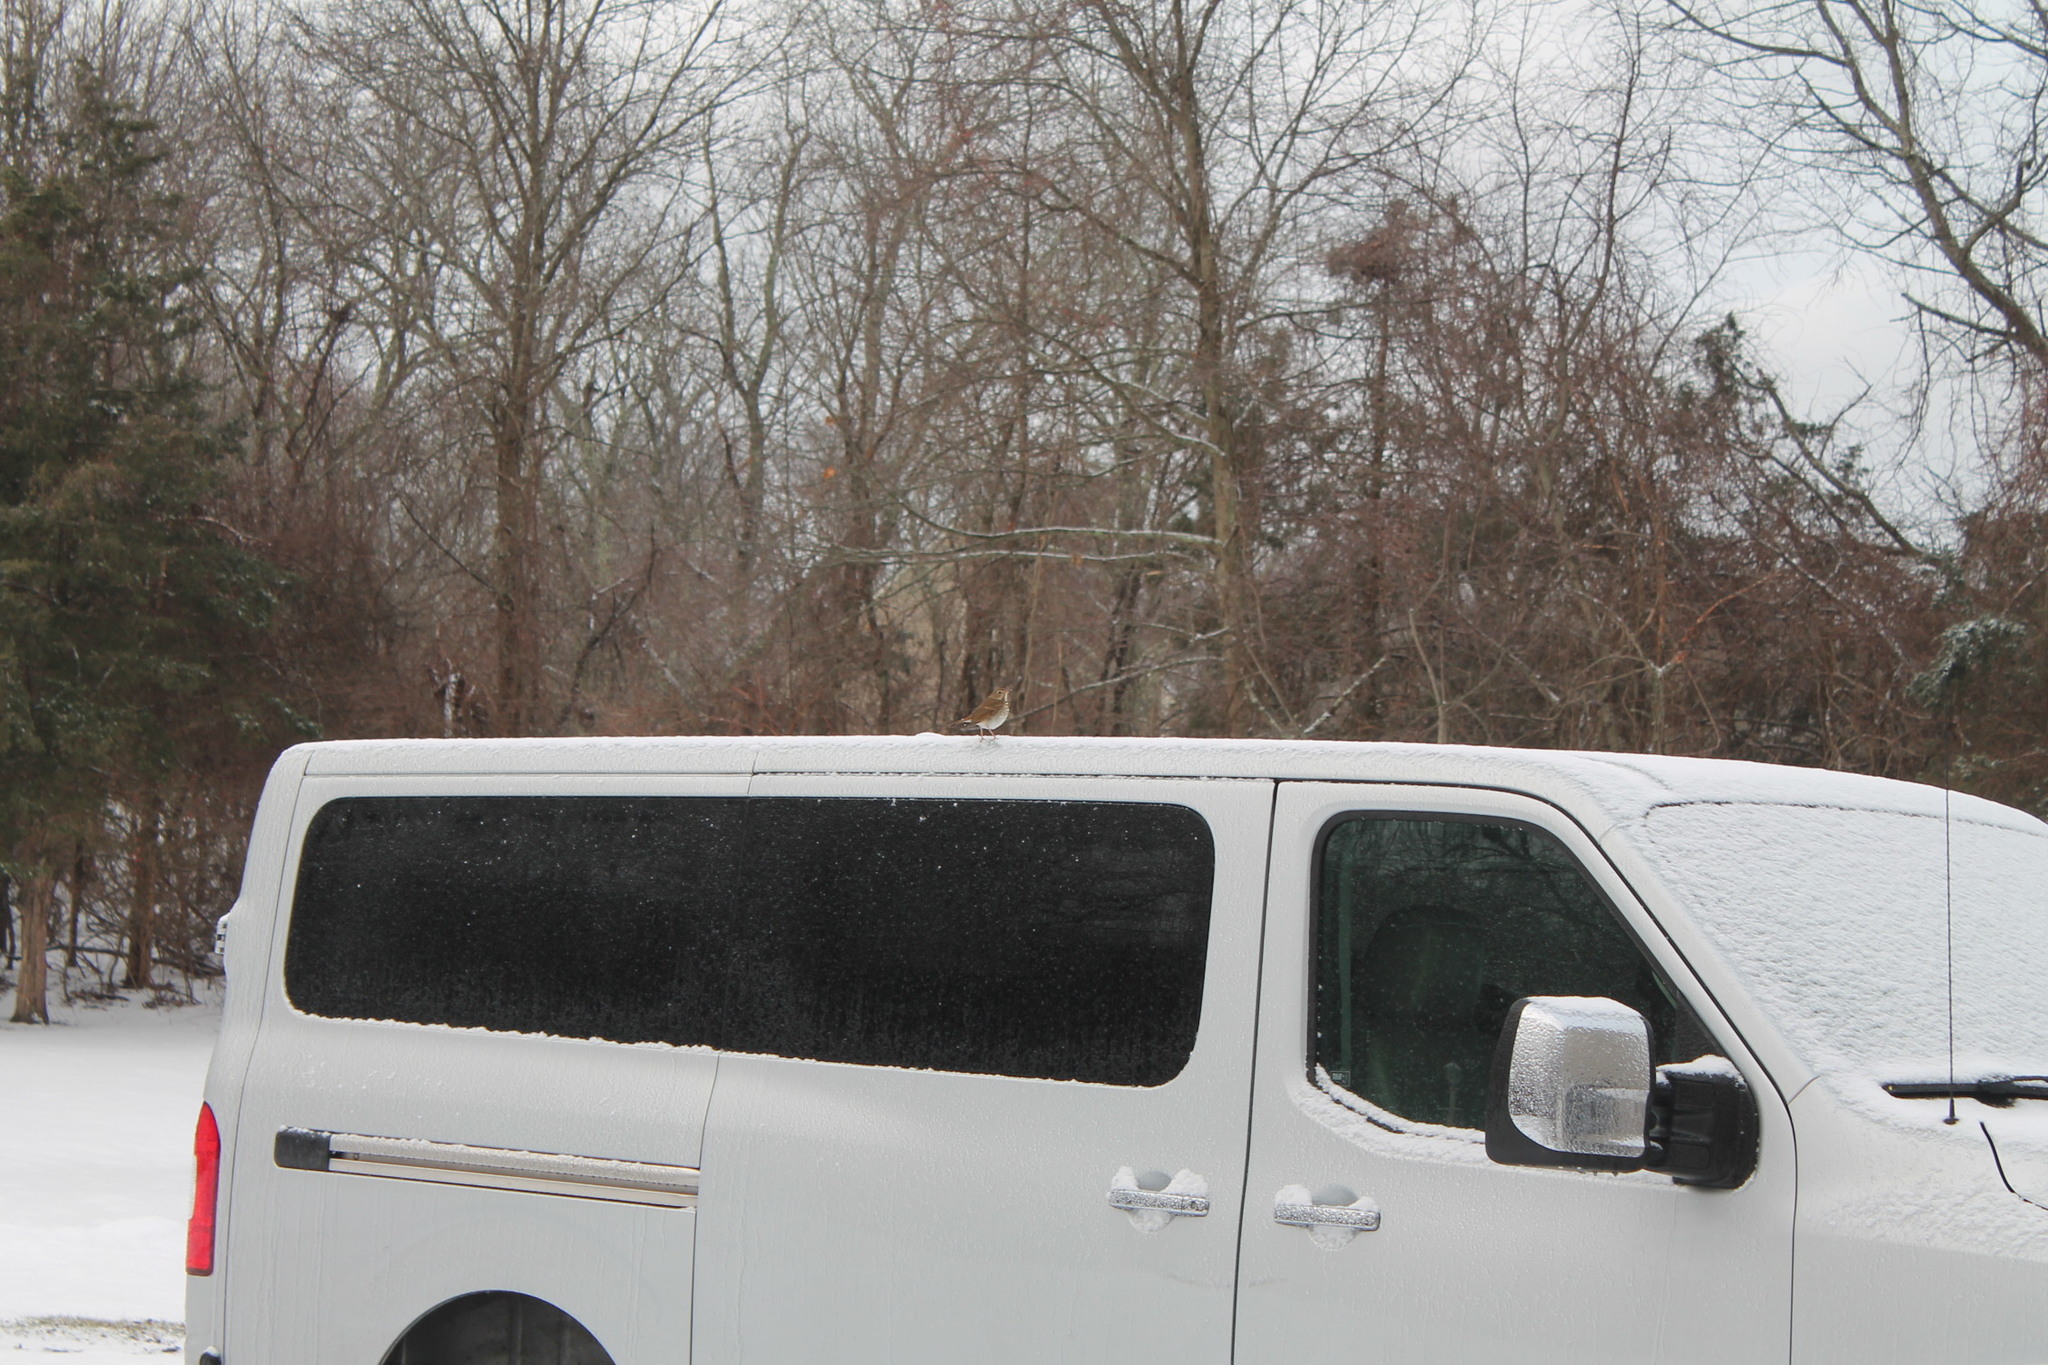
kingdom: Animalia
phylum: Chordata
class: Aves
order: Passeriformes
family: Turdidae
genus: Catharus
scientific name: Catharus guttatus
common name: Hermit thrush
